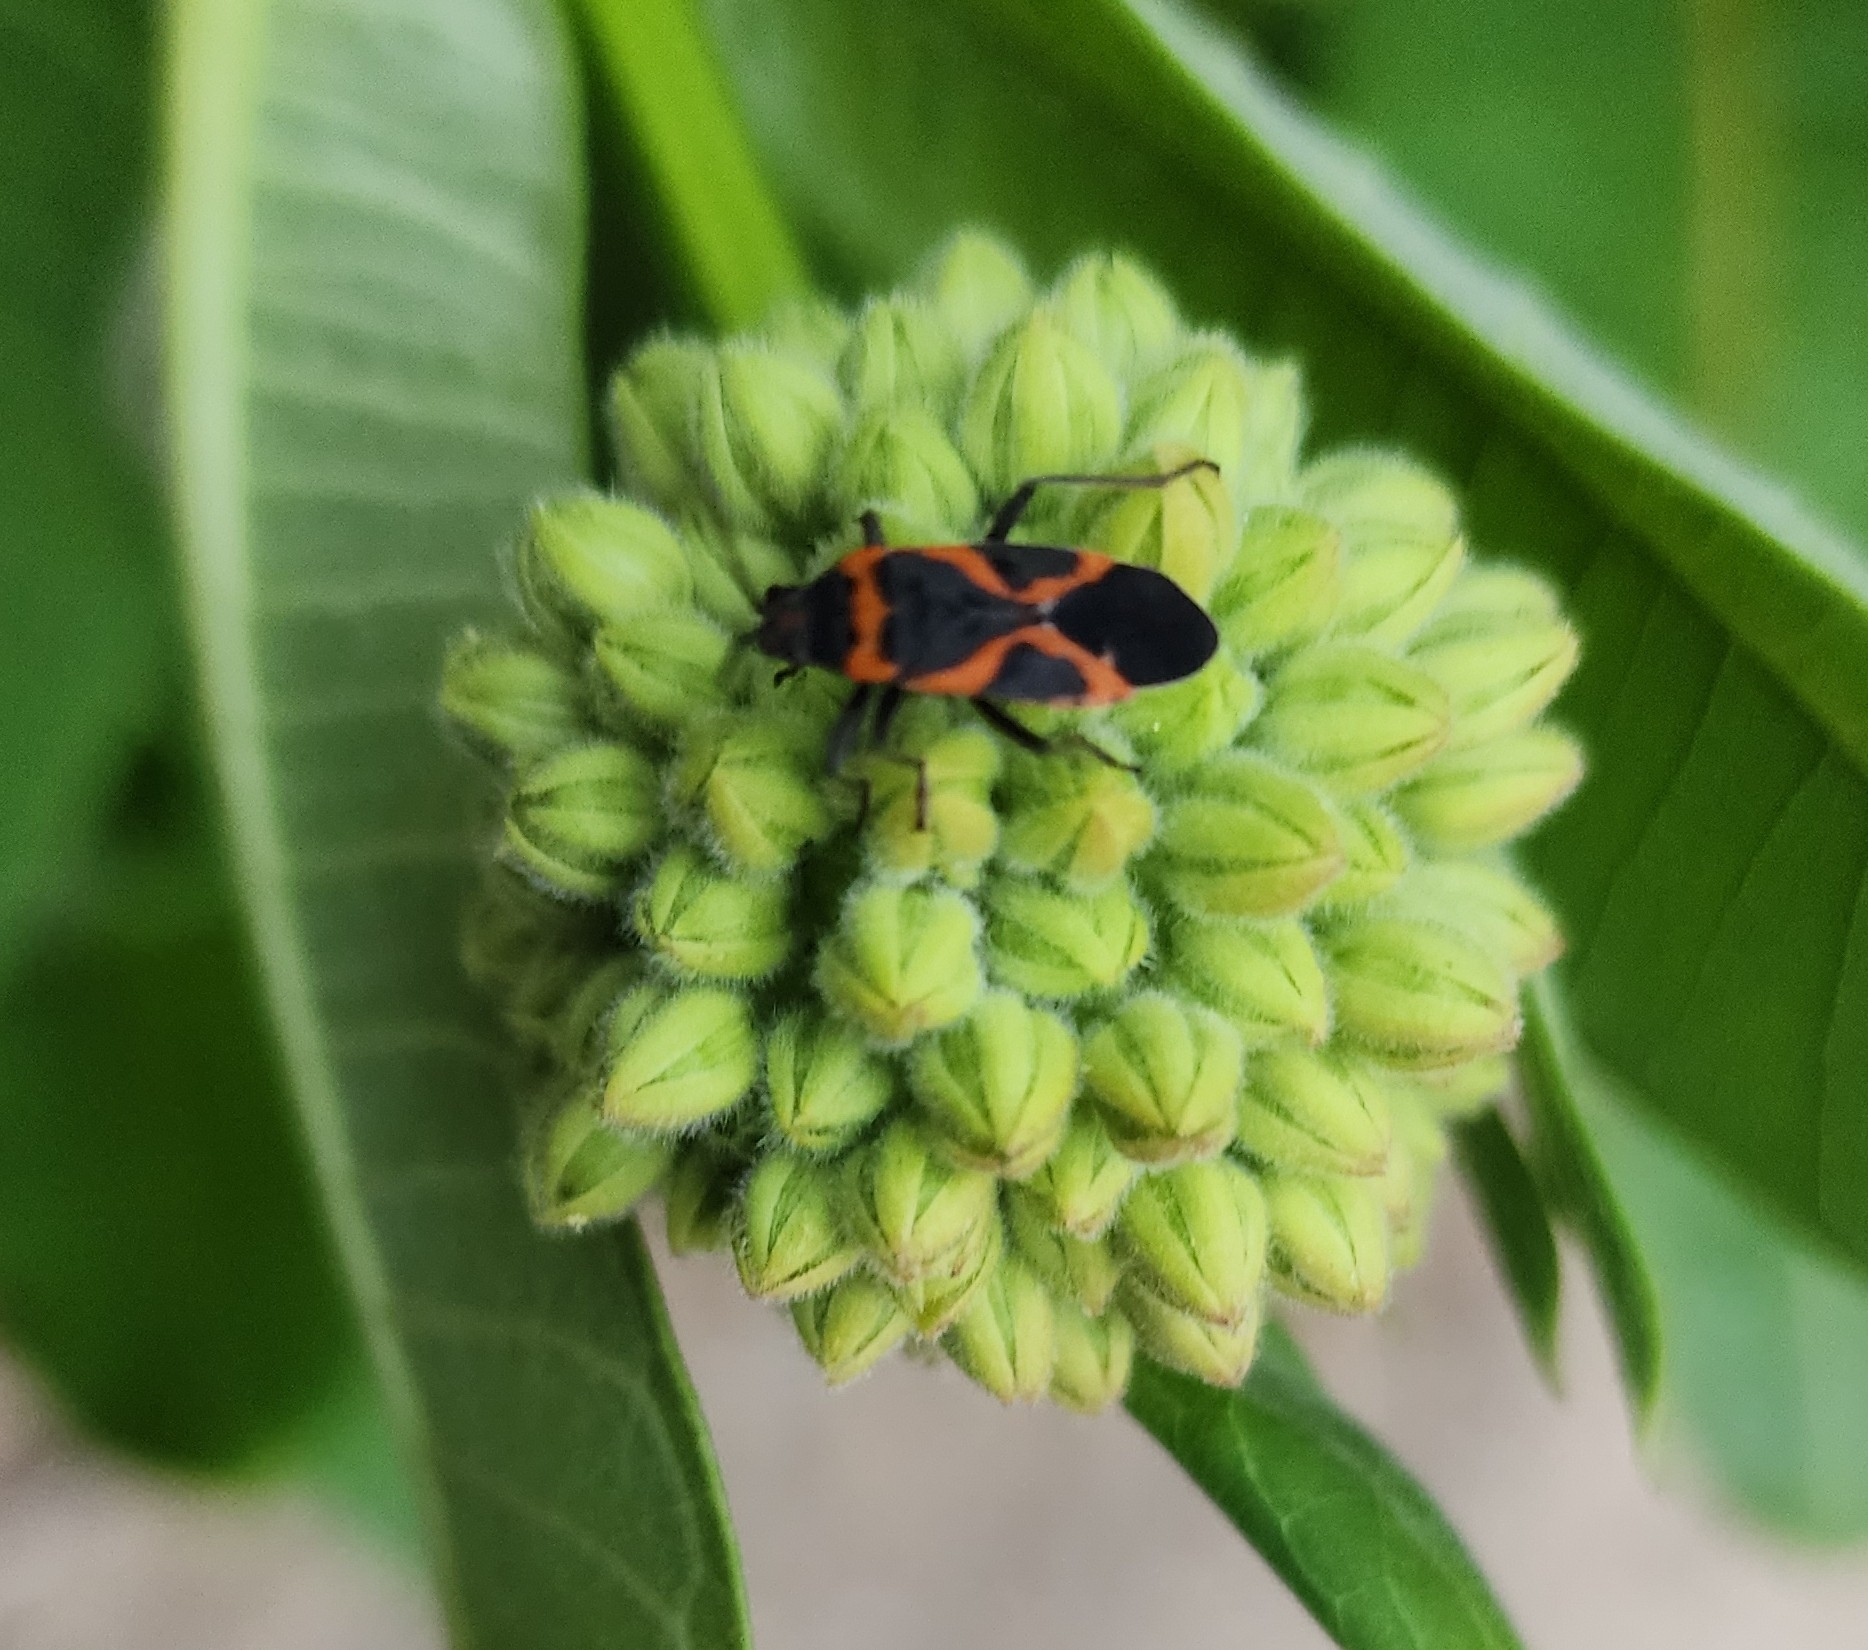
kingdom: Animalia
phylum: Arthropoda
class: Insecta
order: Hemiptera
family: Lygaeidae
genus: Lygaeus
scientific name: Lygaeus kalmii
